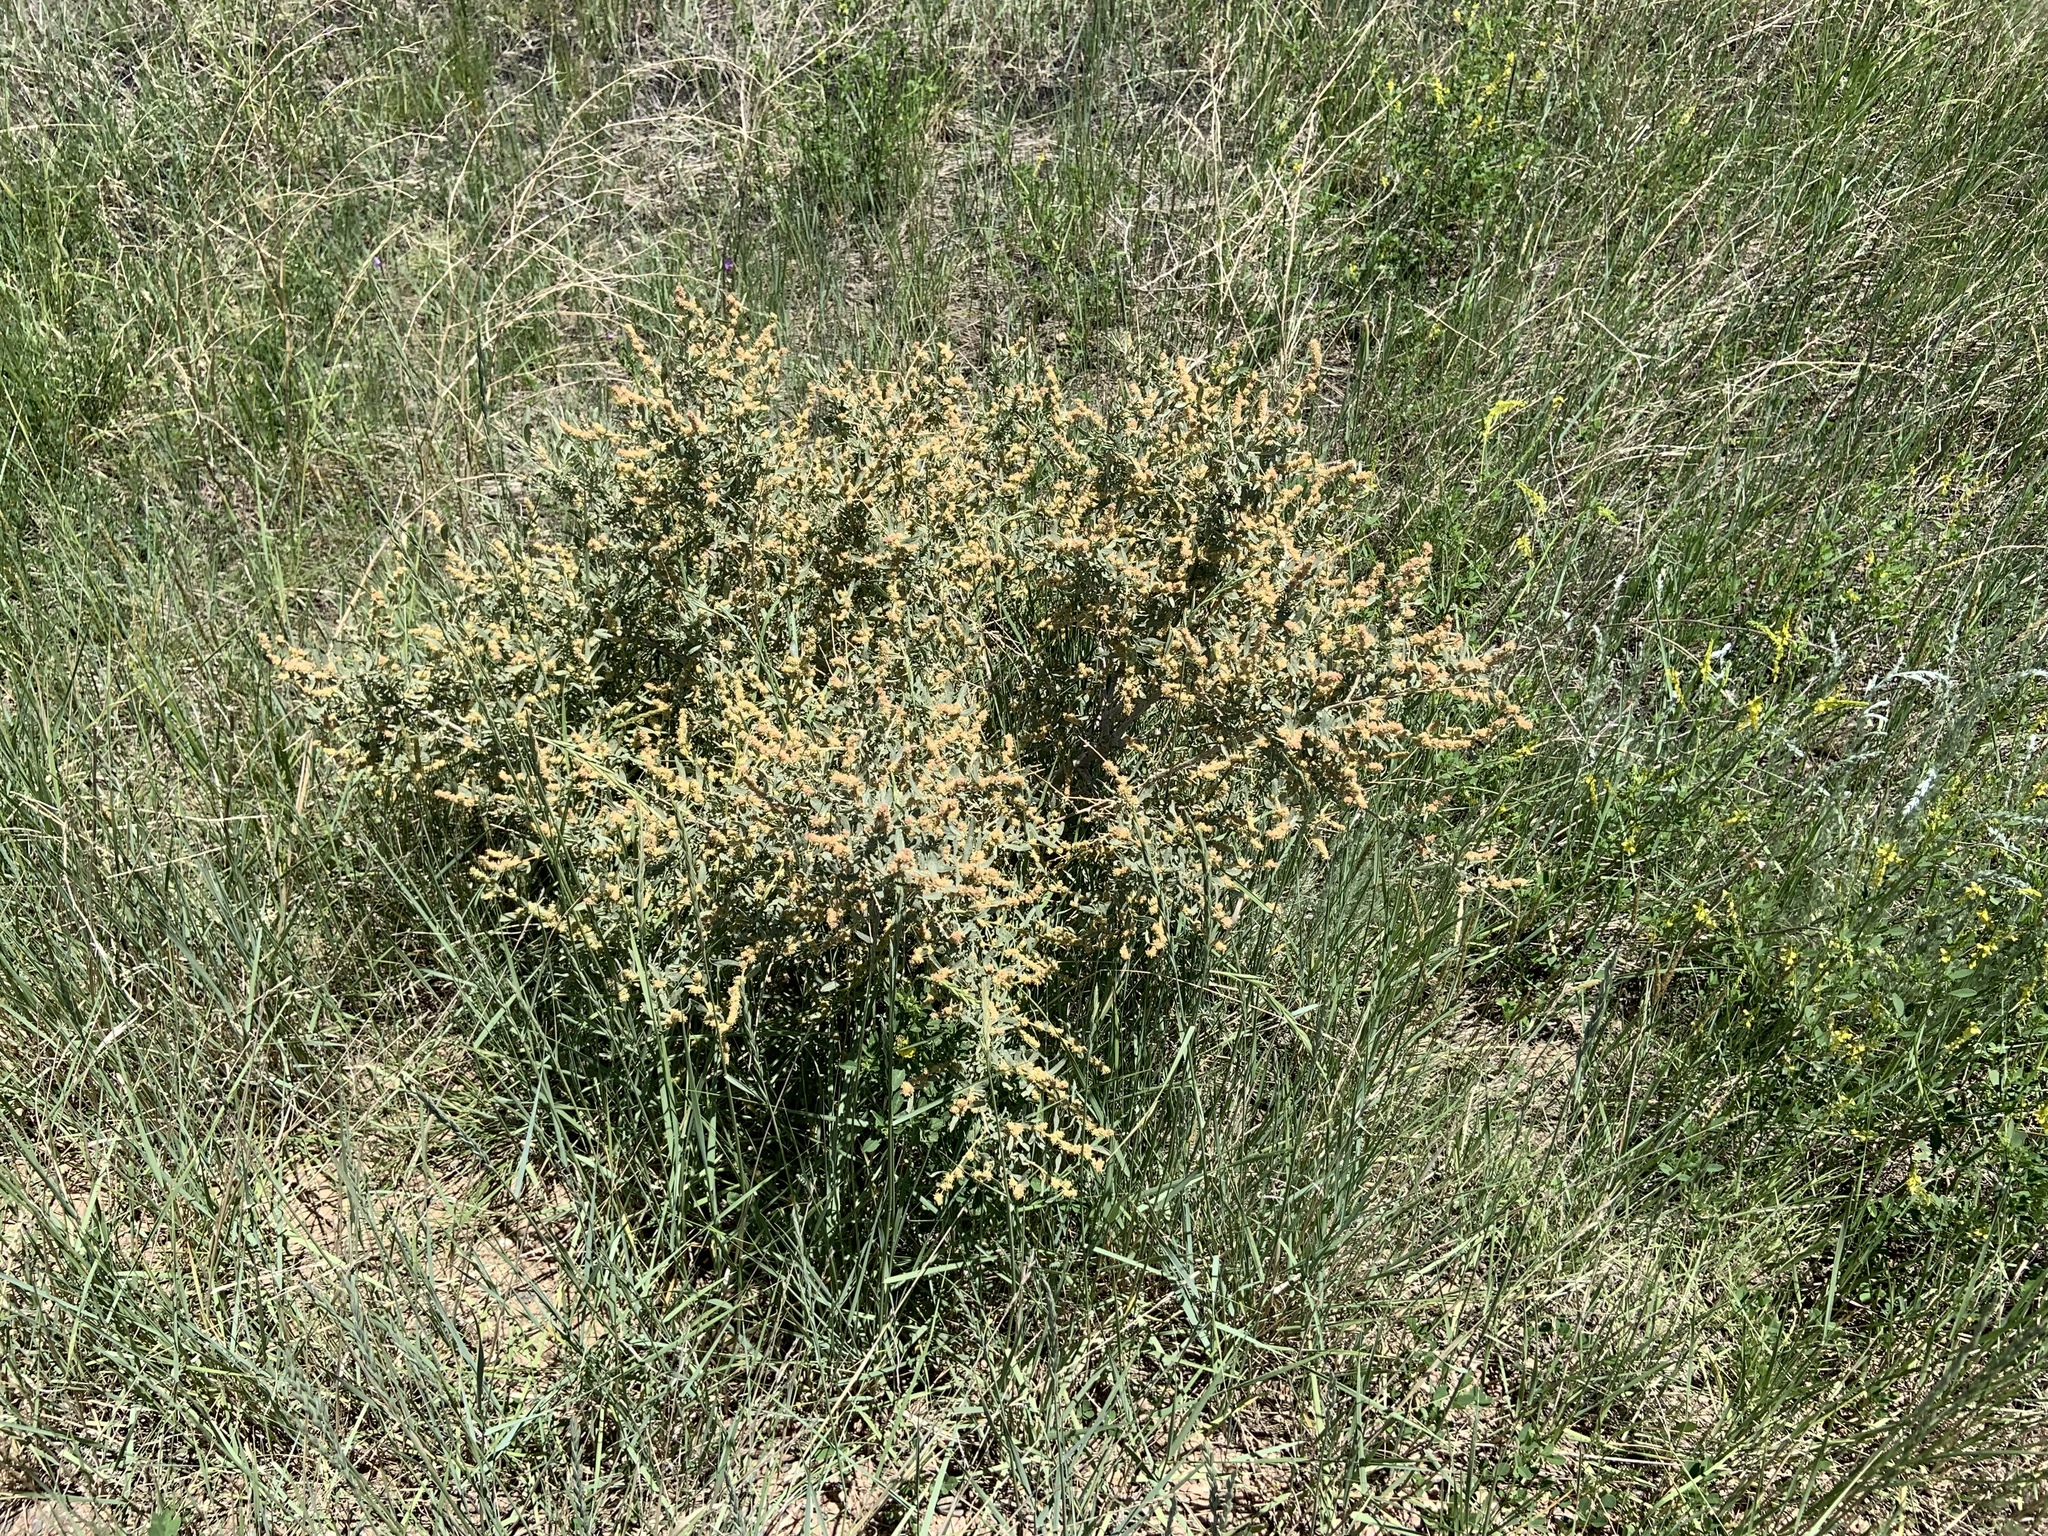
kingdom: Plantae
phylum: Tracheophyta
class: Magnoliopsida
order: Caryophyllales
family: Amaranthaceae
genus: Atriplex
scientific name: Atriplex canescens
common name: Four-wing saltbush
